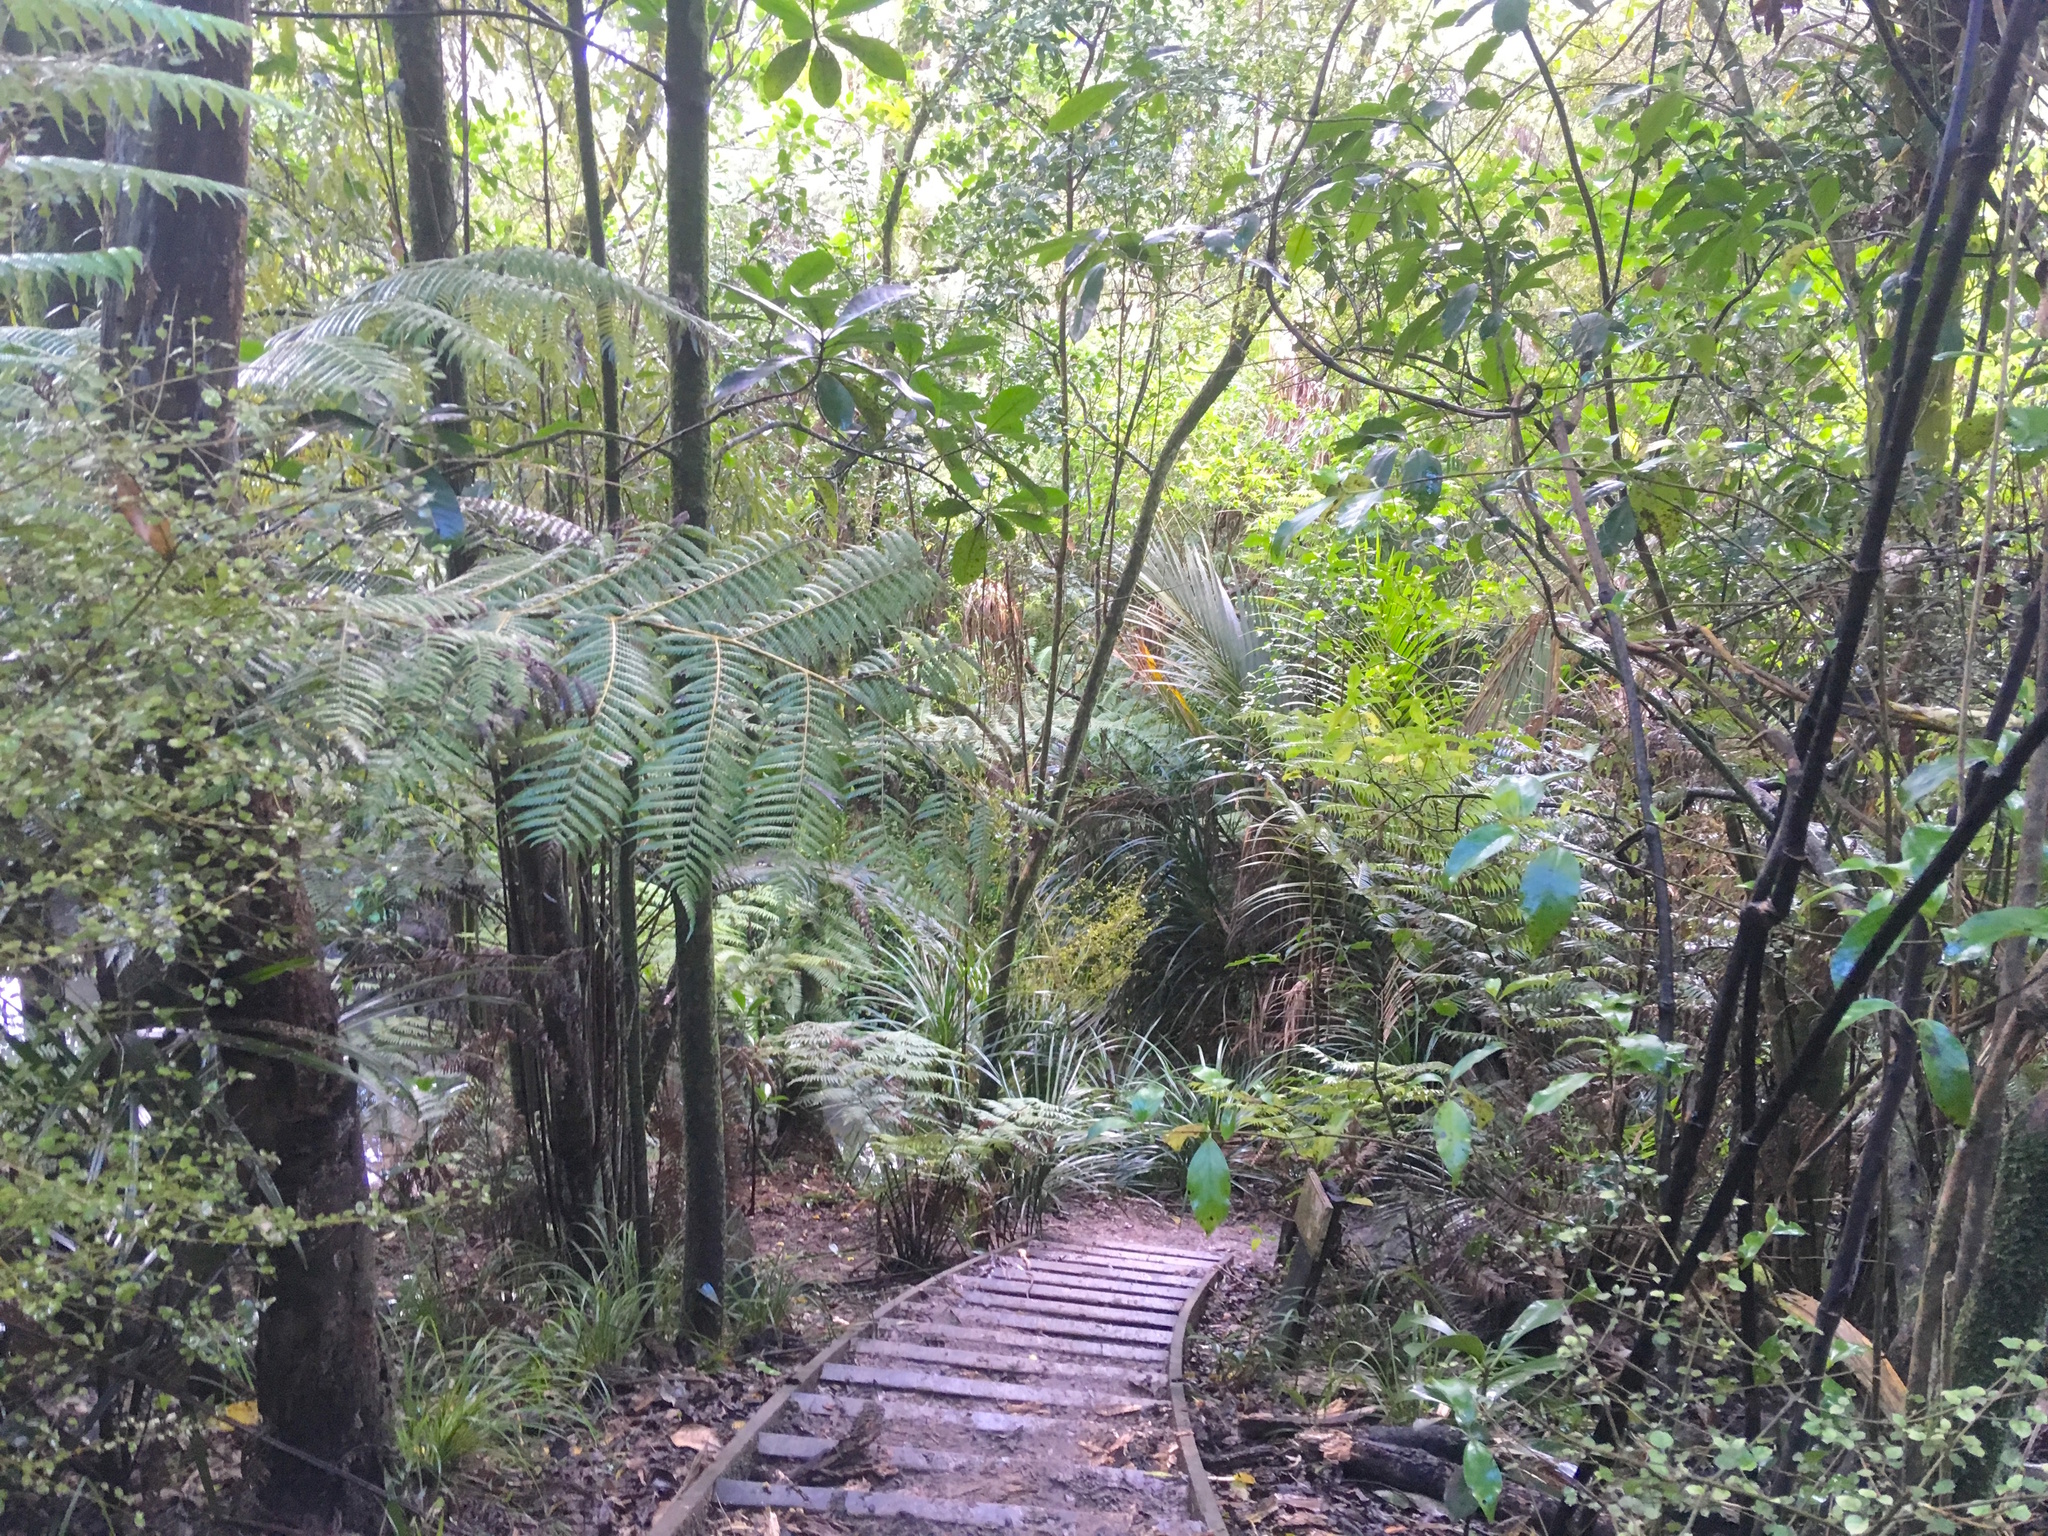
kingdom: Plantae
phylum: Tracheophyta
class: Magnoliopsida
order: Cucurbitales
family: Corynocarpaceae
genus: Corynocarpus
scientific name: Corynocarpus laevigatus
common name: New zealand laurel
